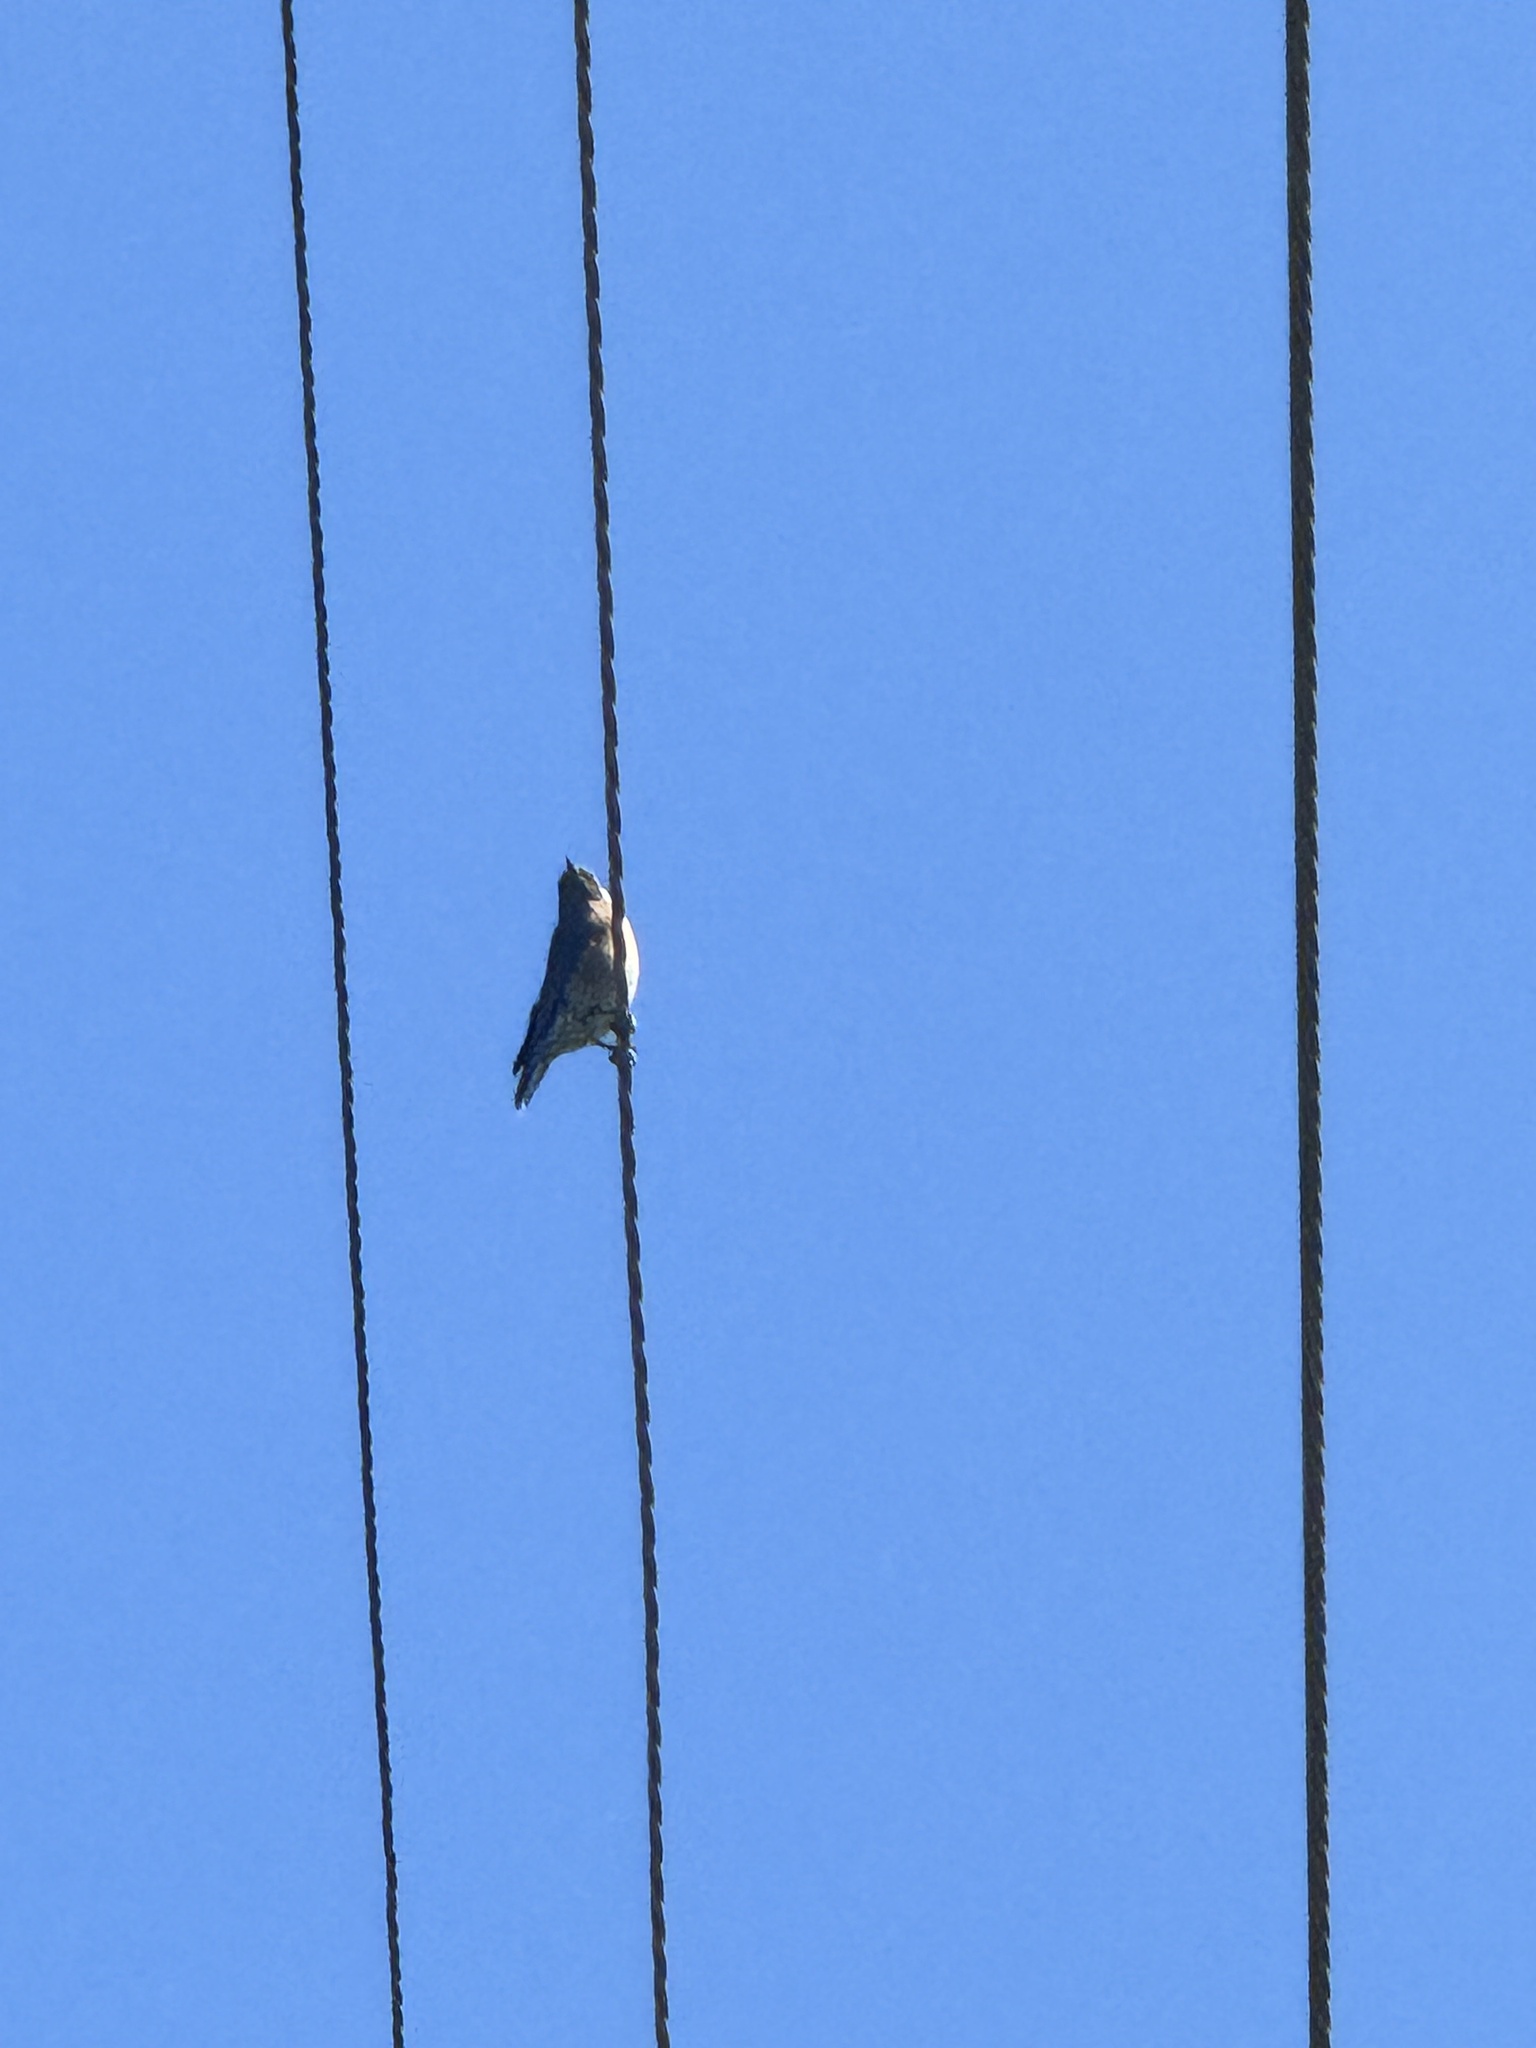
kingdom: Animalia
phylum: Chordata
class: Aves
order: Passeriformes
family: Turdidae
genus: Sialia
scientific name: Sialia mexicana
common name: Western bluebird
